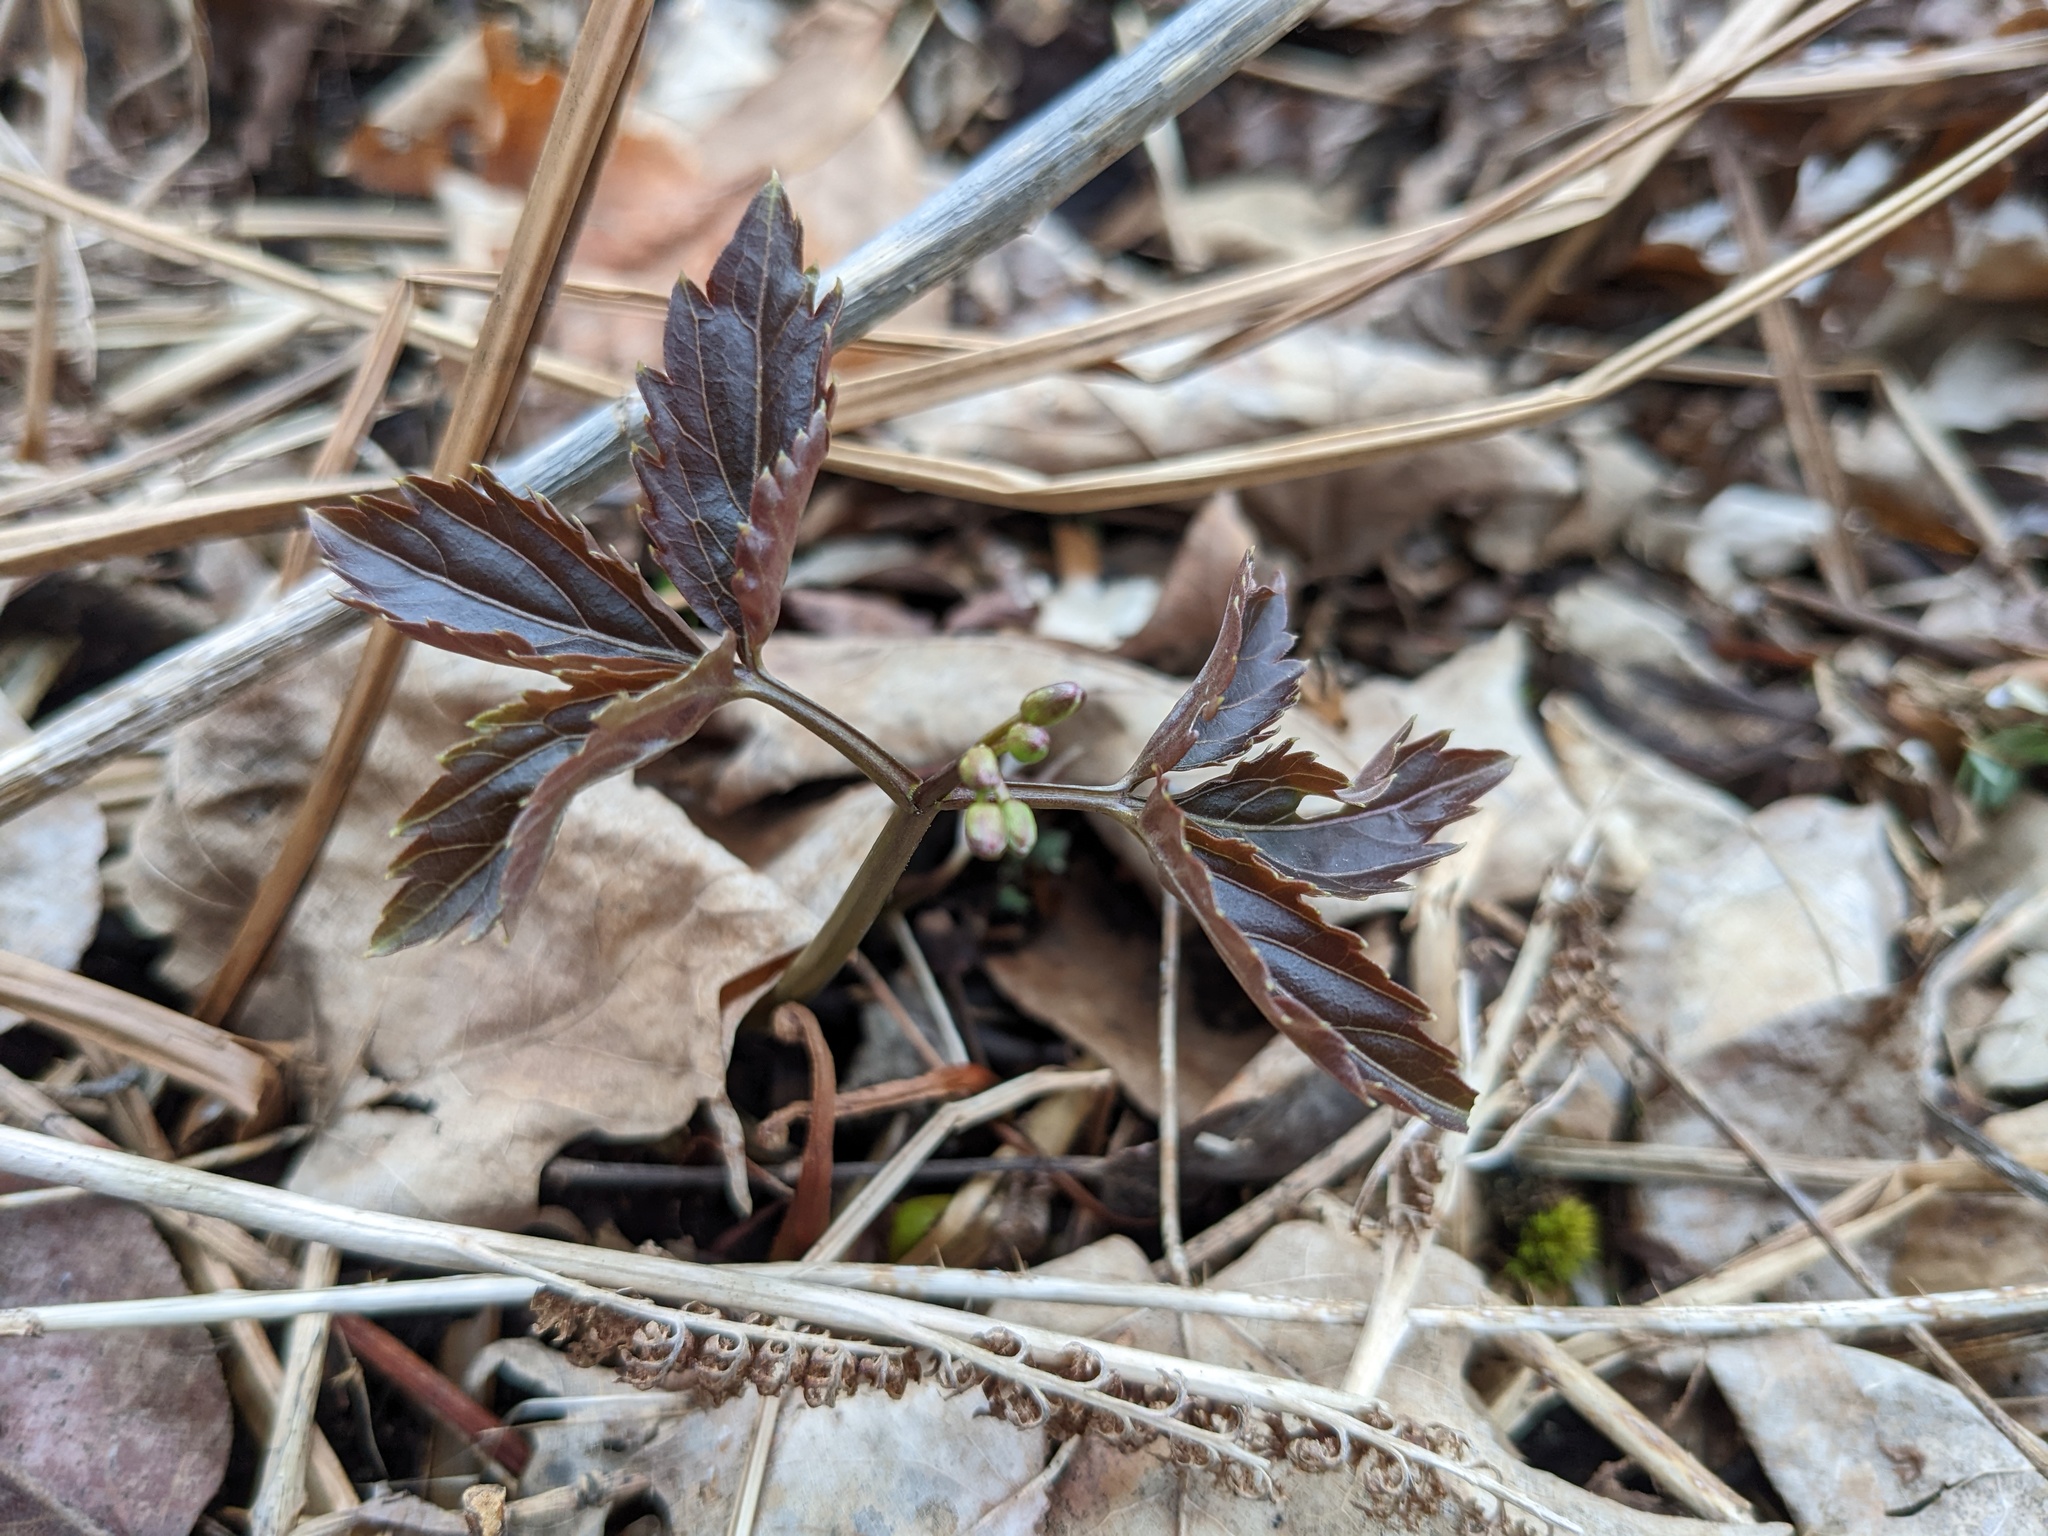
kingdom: Plantae
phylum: Tracheophyta
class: Magnoliopsida
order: Brassicales
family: Brassicaceae
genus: Cardamine
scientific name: Cardamine diphylla
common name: Broad-leaved toothwort
